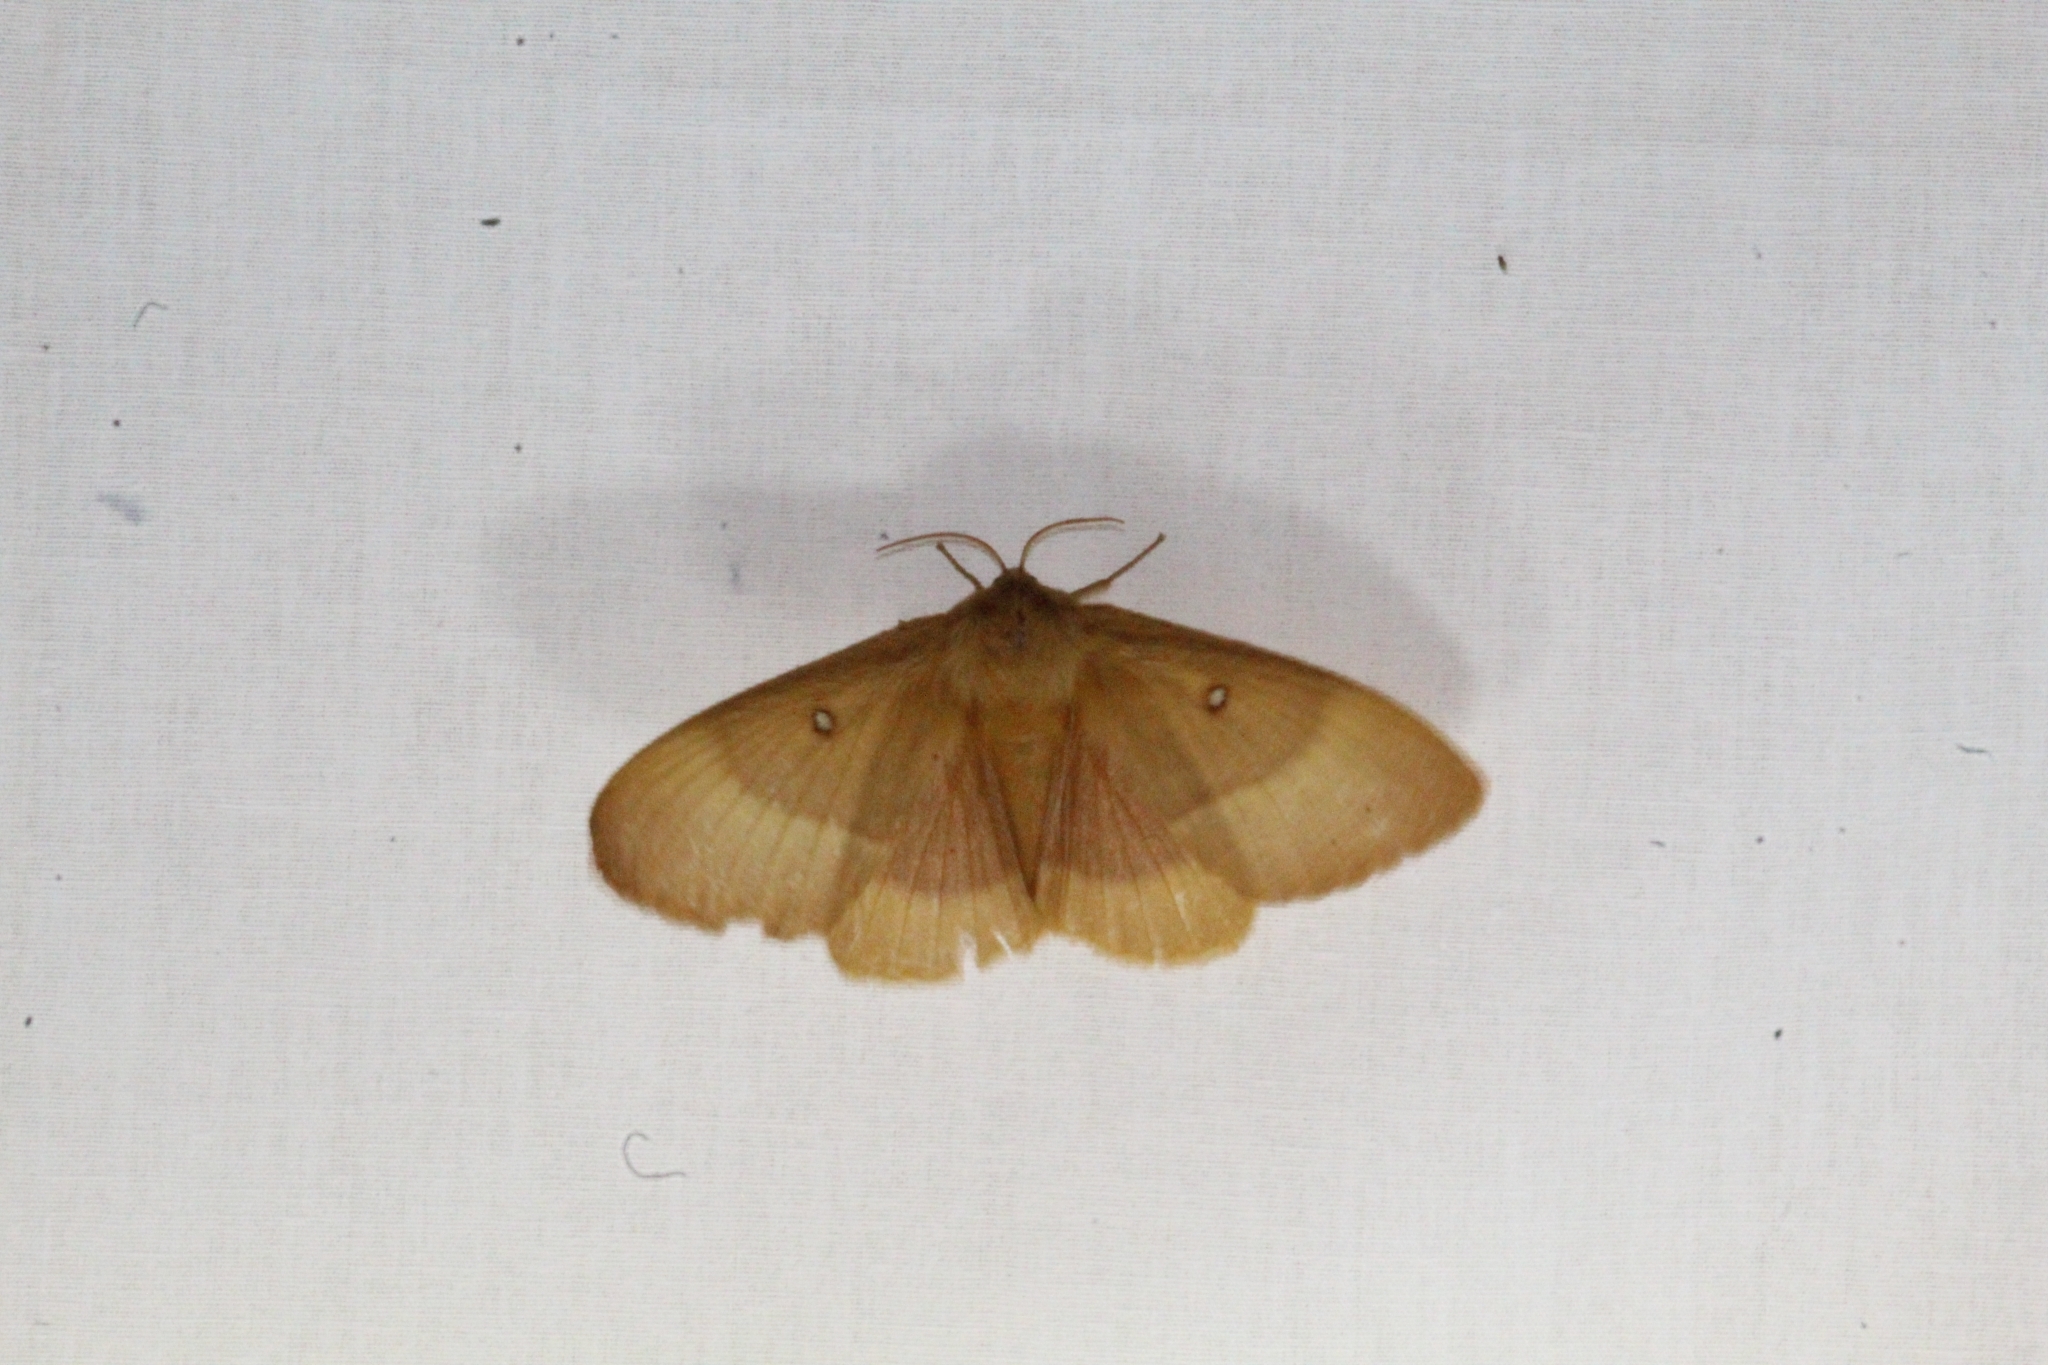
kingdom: Animalia
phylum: Arthropoda
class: Insecta
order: Lepidoptera
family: Lasiocampidae
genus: Lasiocampa
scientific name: Lasiocampa quercus
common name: Oak eggar
